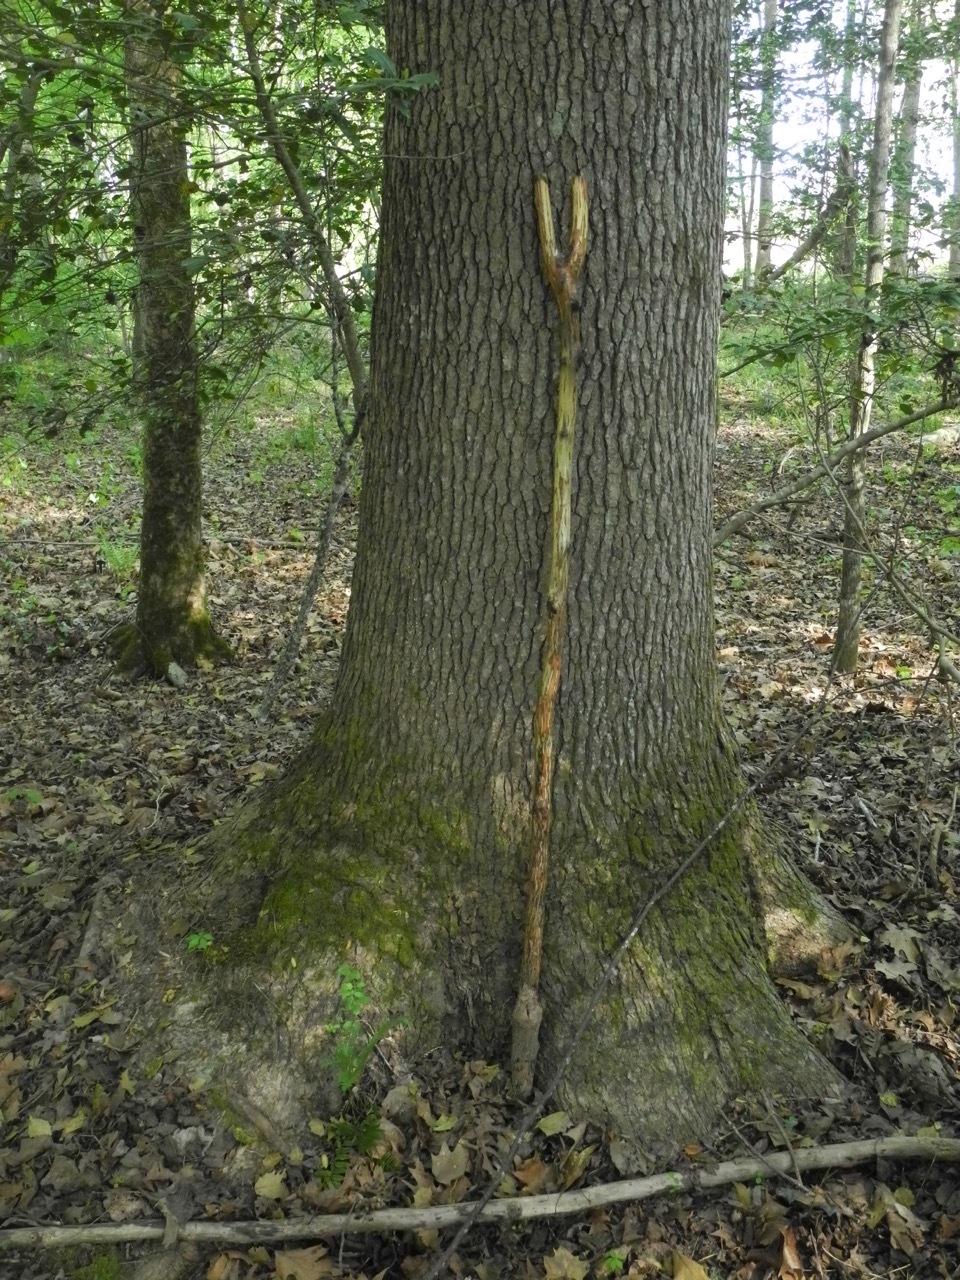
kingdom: Plantae
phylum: Tracheophyta
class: Magnoliopsida
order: Magnoliales
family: Magnoliaceae
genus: Liriodendron
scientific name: Liriodendron tulipifera
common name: Tulip tree
